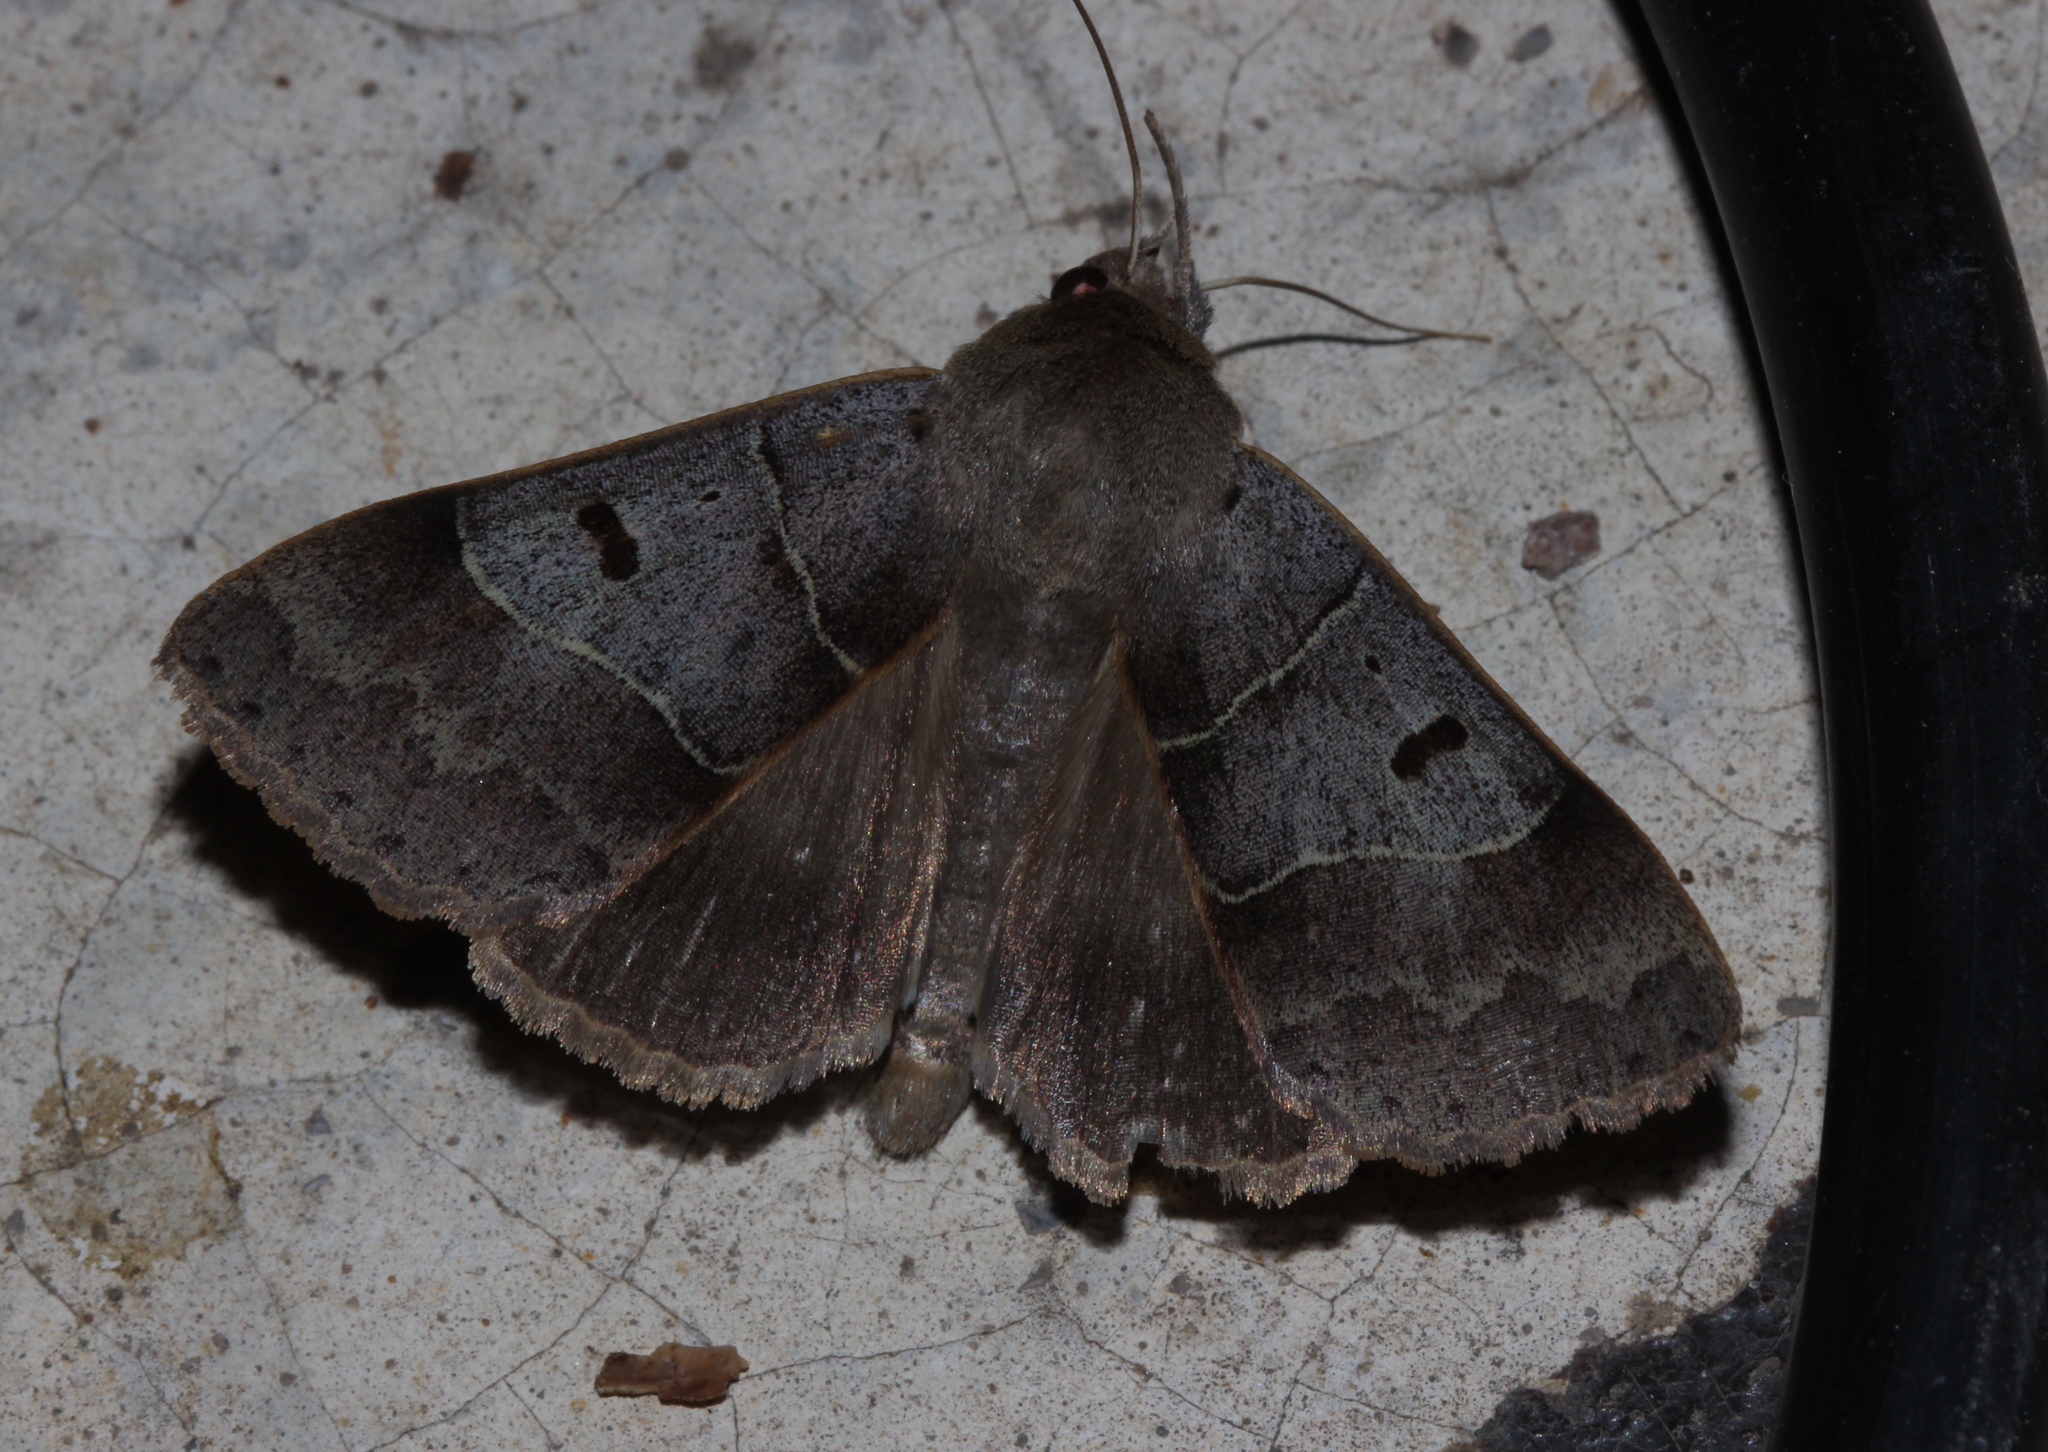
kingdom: Animalia
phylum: Arthropoda
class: Insecta
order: Lepidoptera
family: Erebidae
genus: Minucia
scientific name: Minucia lunaris
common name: Lunar double-stripe
